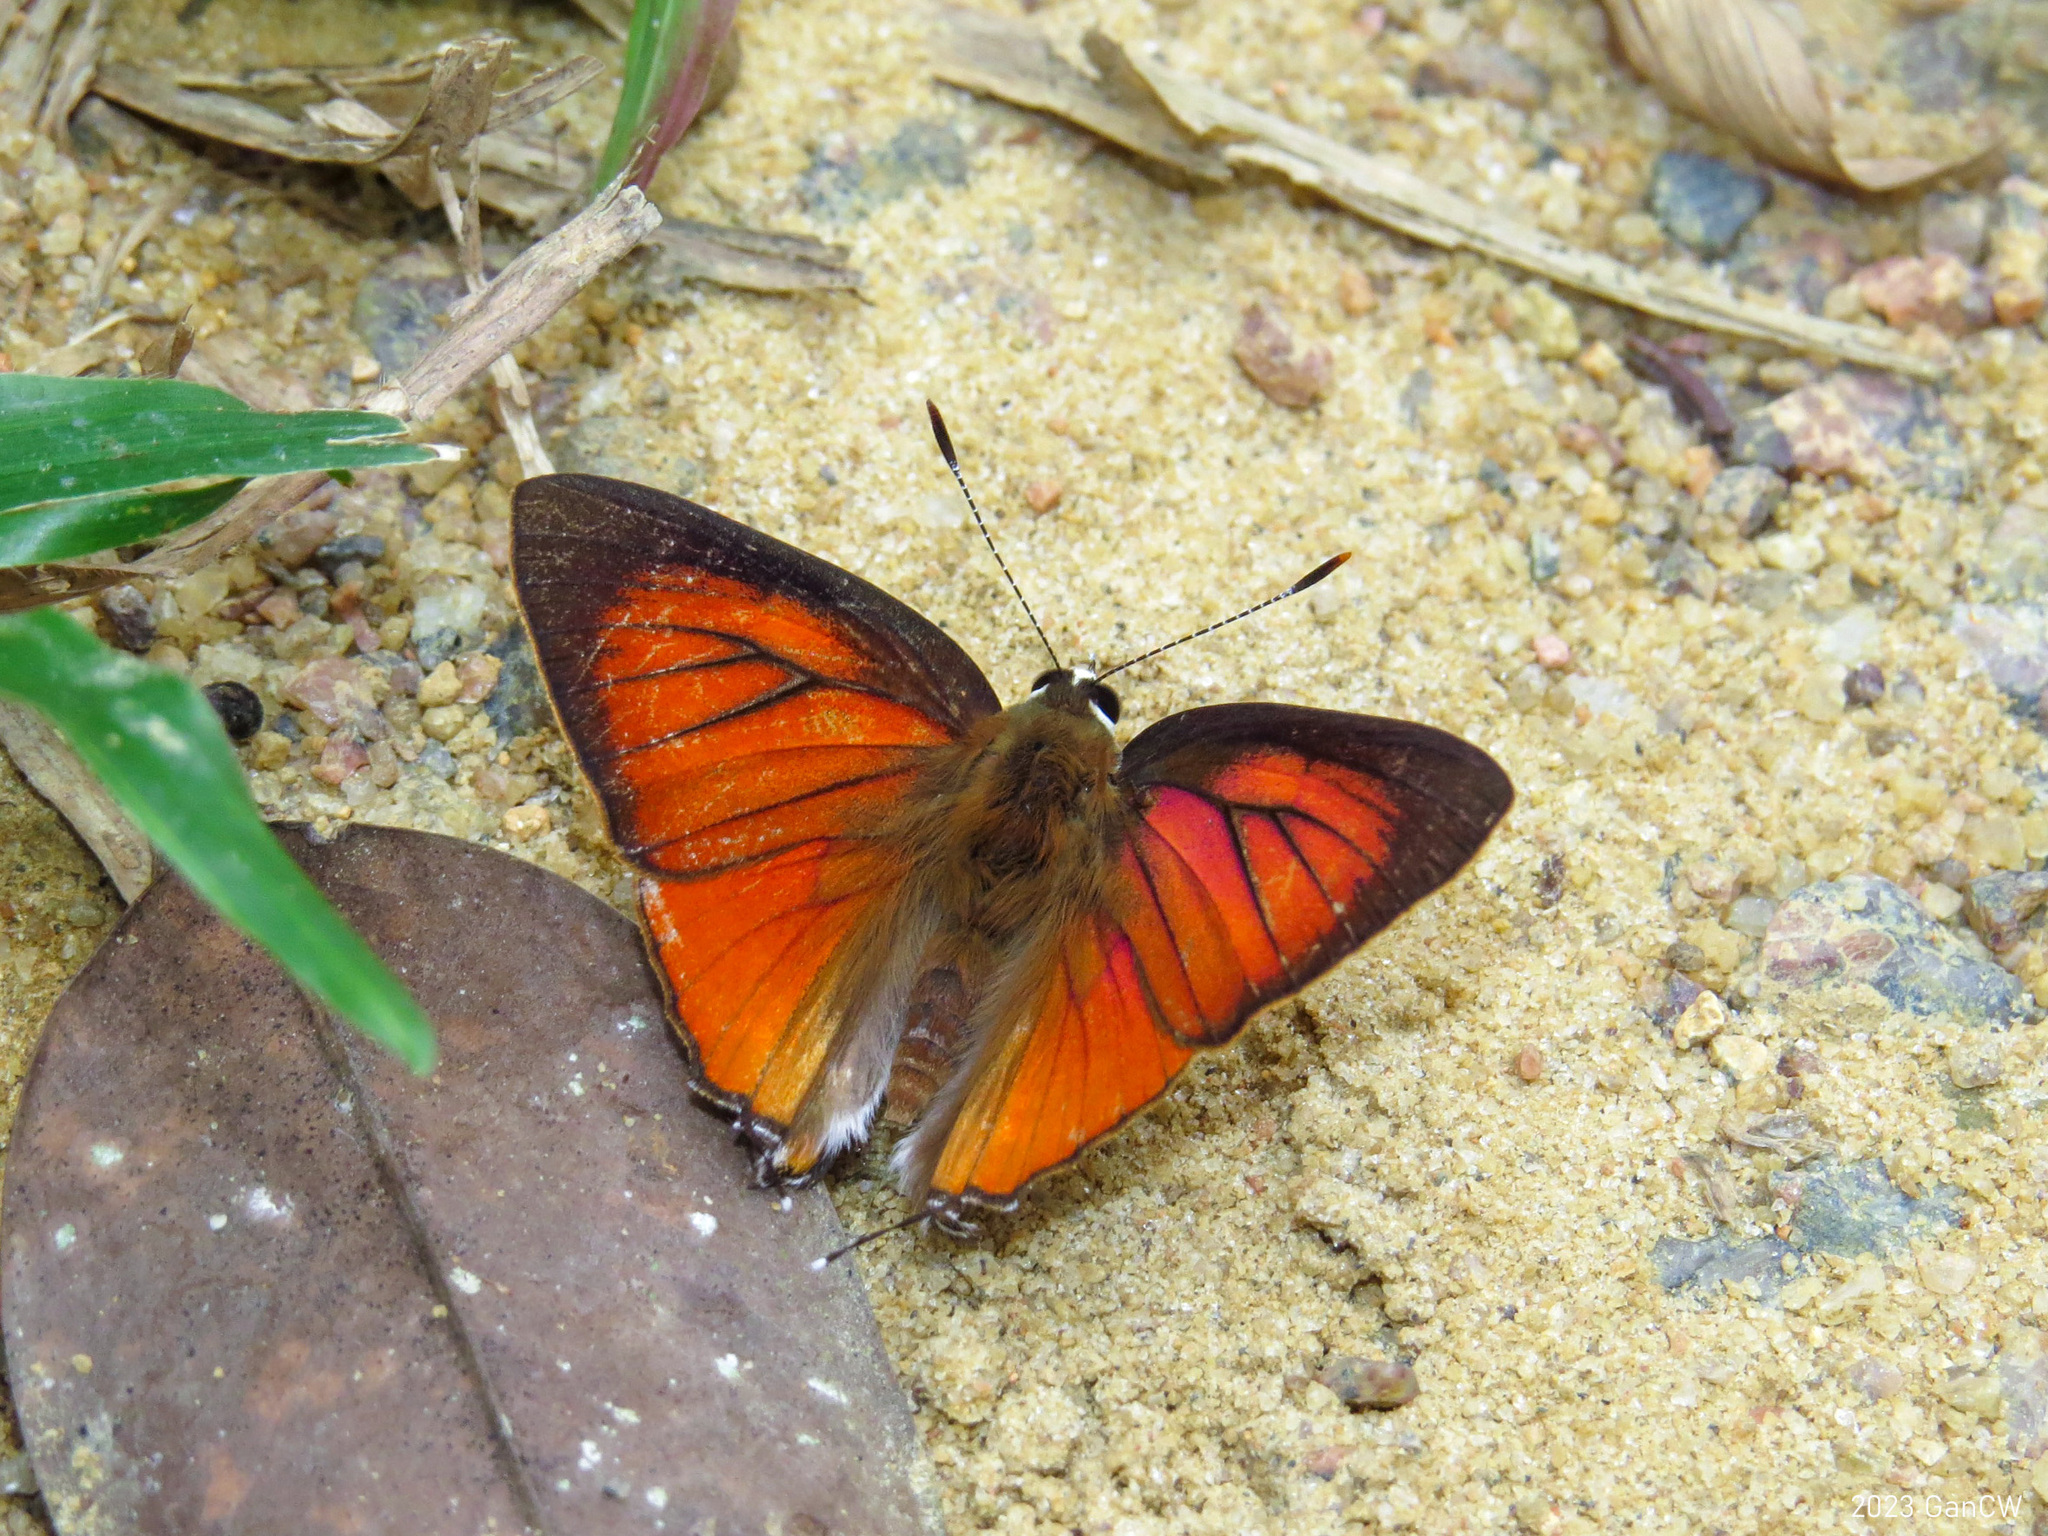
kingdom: Animalia
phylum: Arthropoda
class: Insecta
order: Lepidoptera
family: Lycaenidae
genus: Rapala
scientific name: Rapala iarbus
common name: Common red flash
